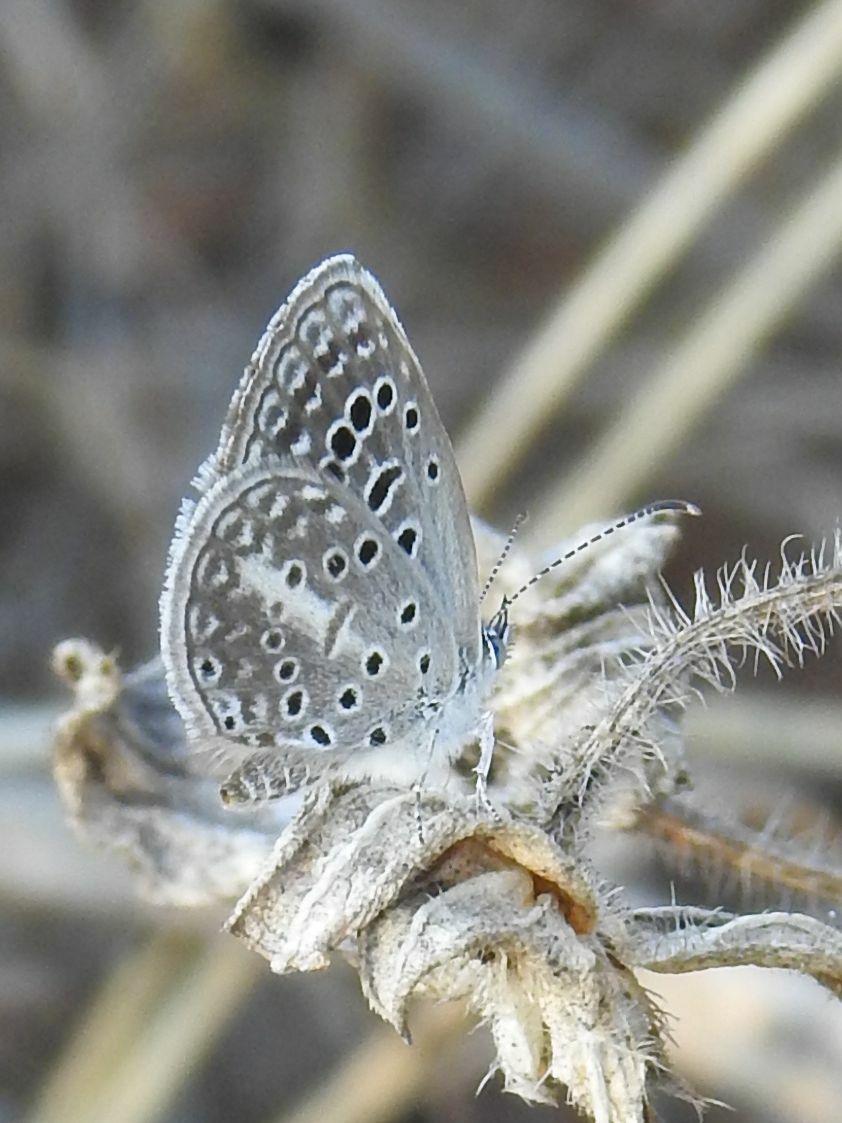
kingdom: Animalia
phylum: Arthropoda
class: Insecta
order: Lepidoptera
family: Lycaenidae
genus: Actizera
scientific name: Actizera lucida
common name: Rayed blue
